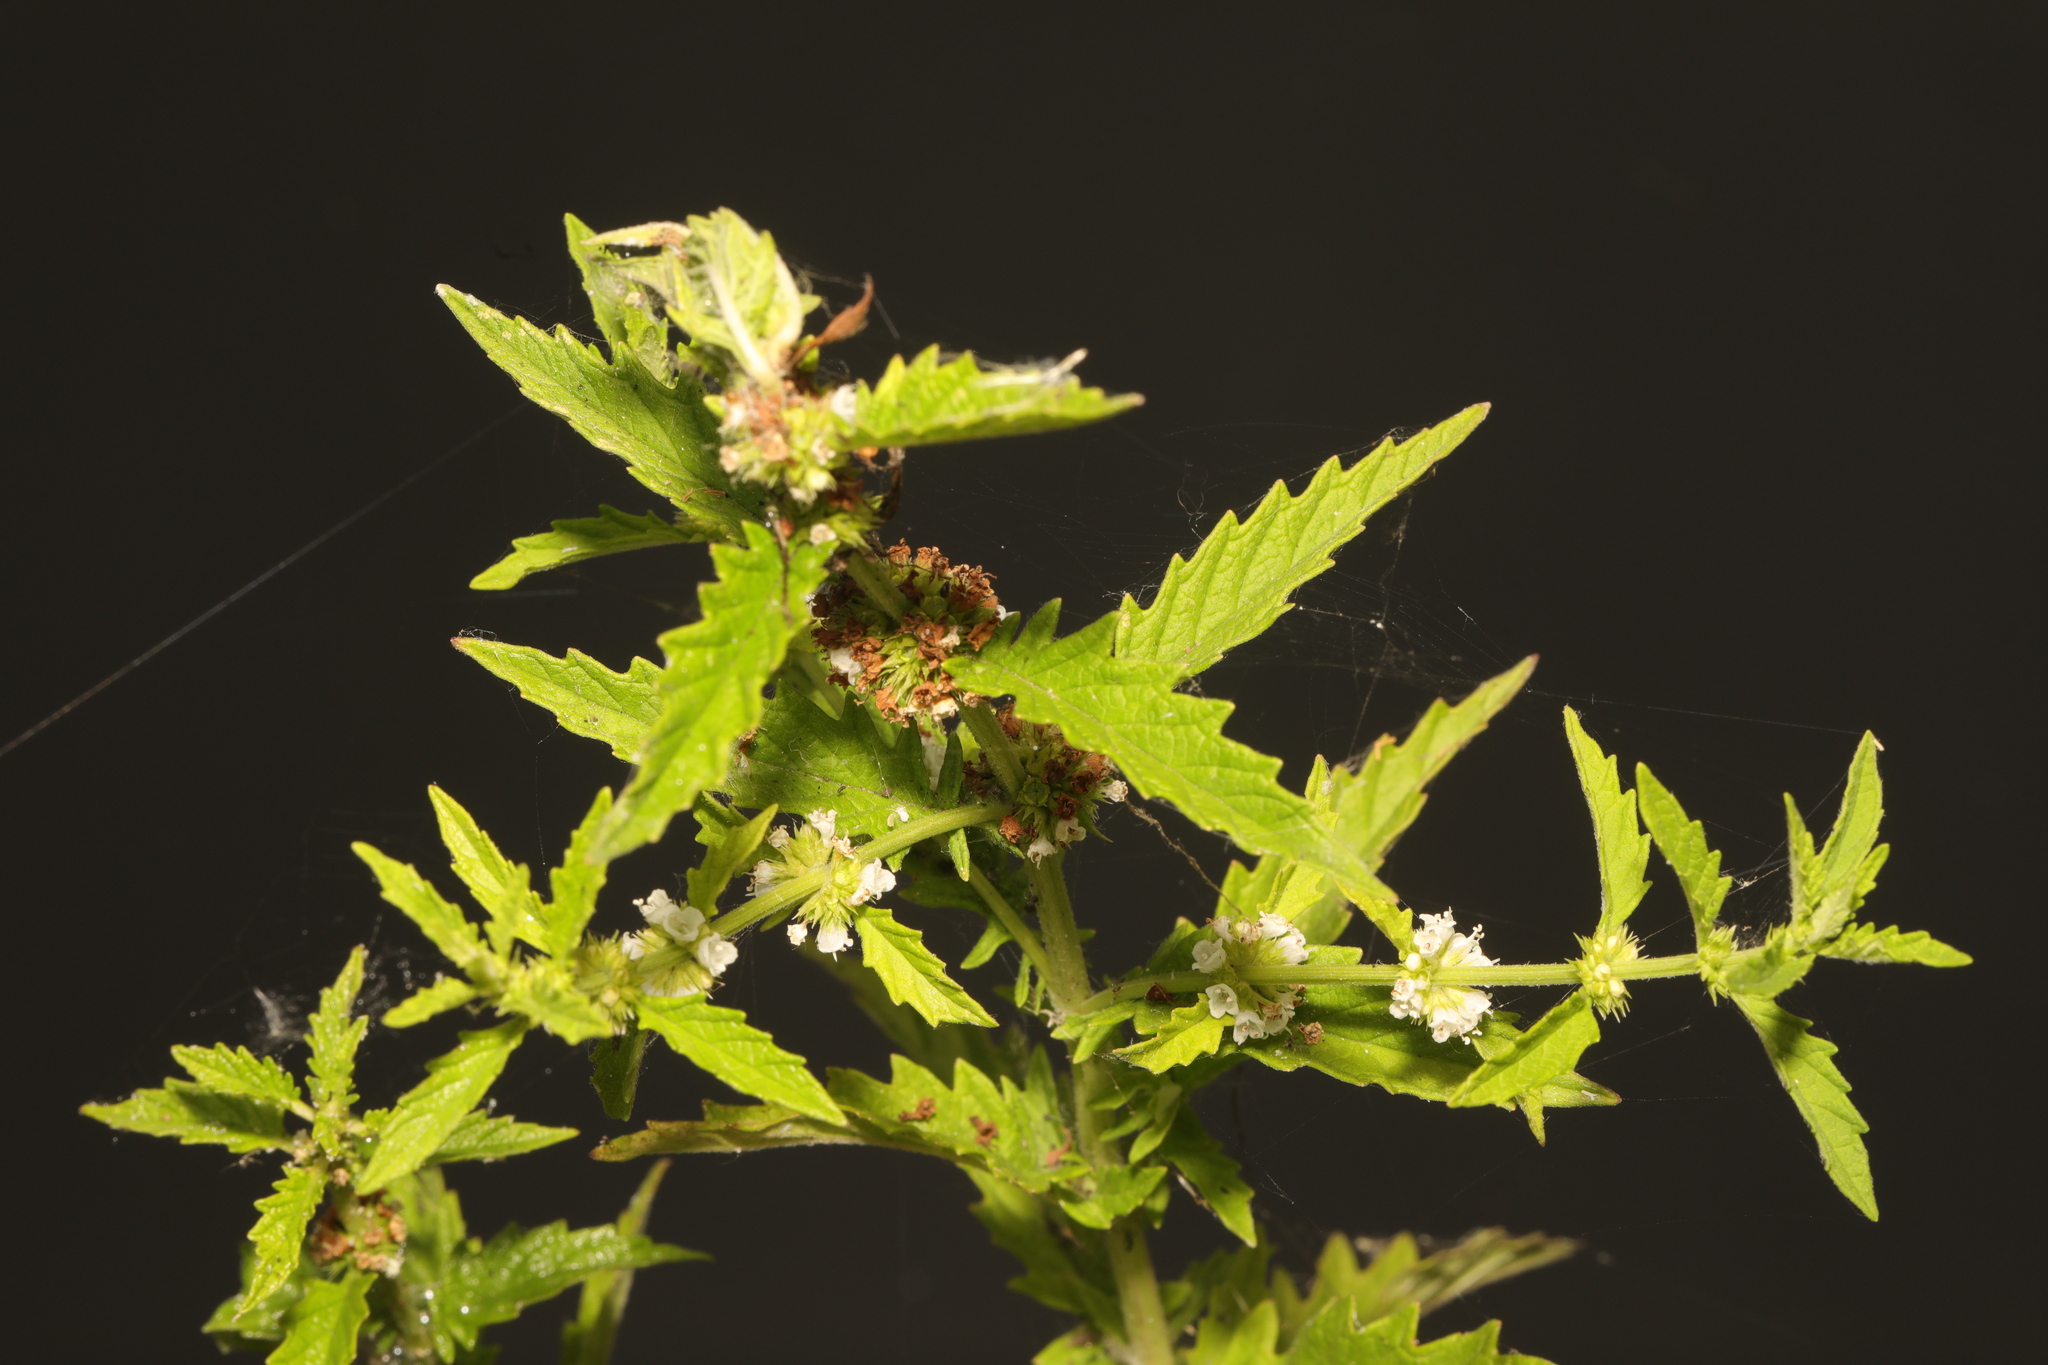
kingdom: Plantae
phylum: Tracheophyta
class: Magnoliopsida
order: Lamiales
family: Lamiaceae
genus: Lycopus
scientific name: Lycopus europaeus
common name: European bugleweed
